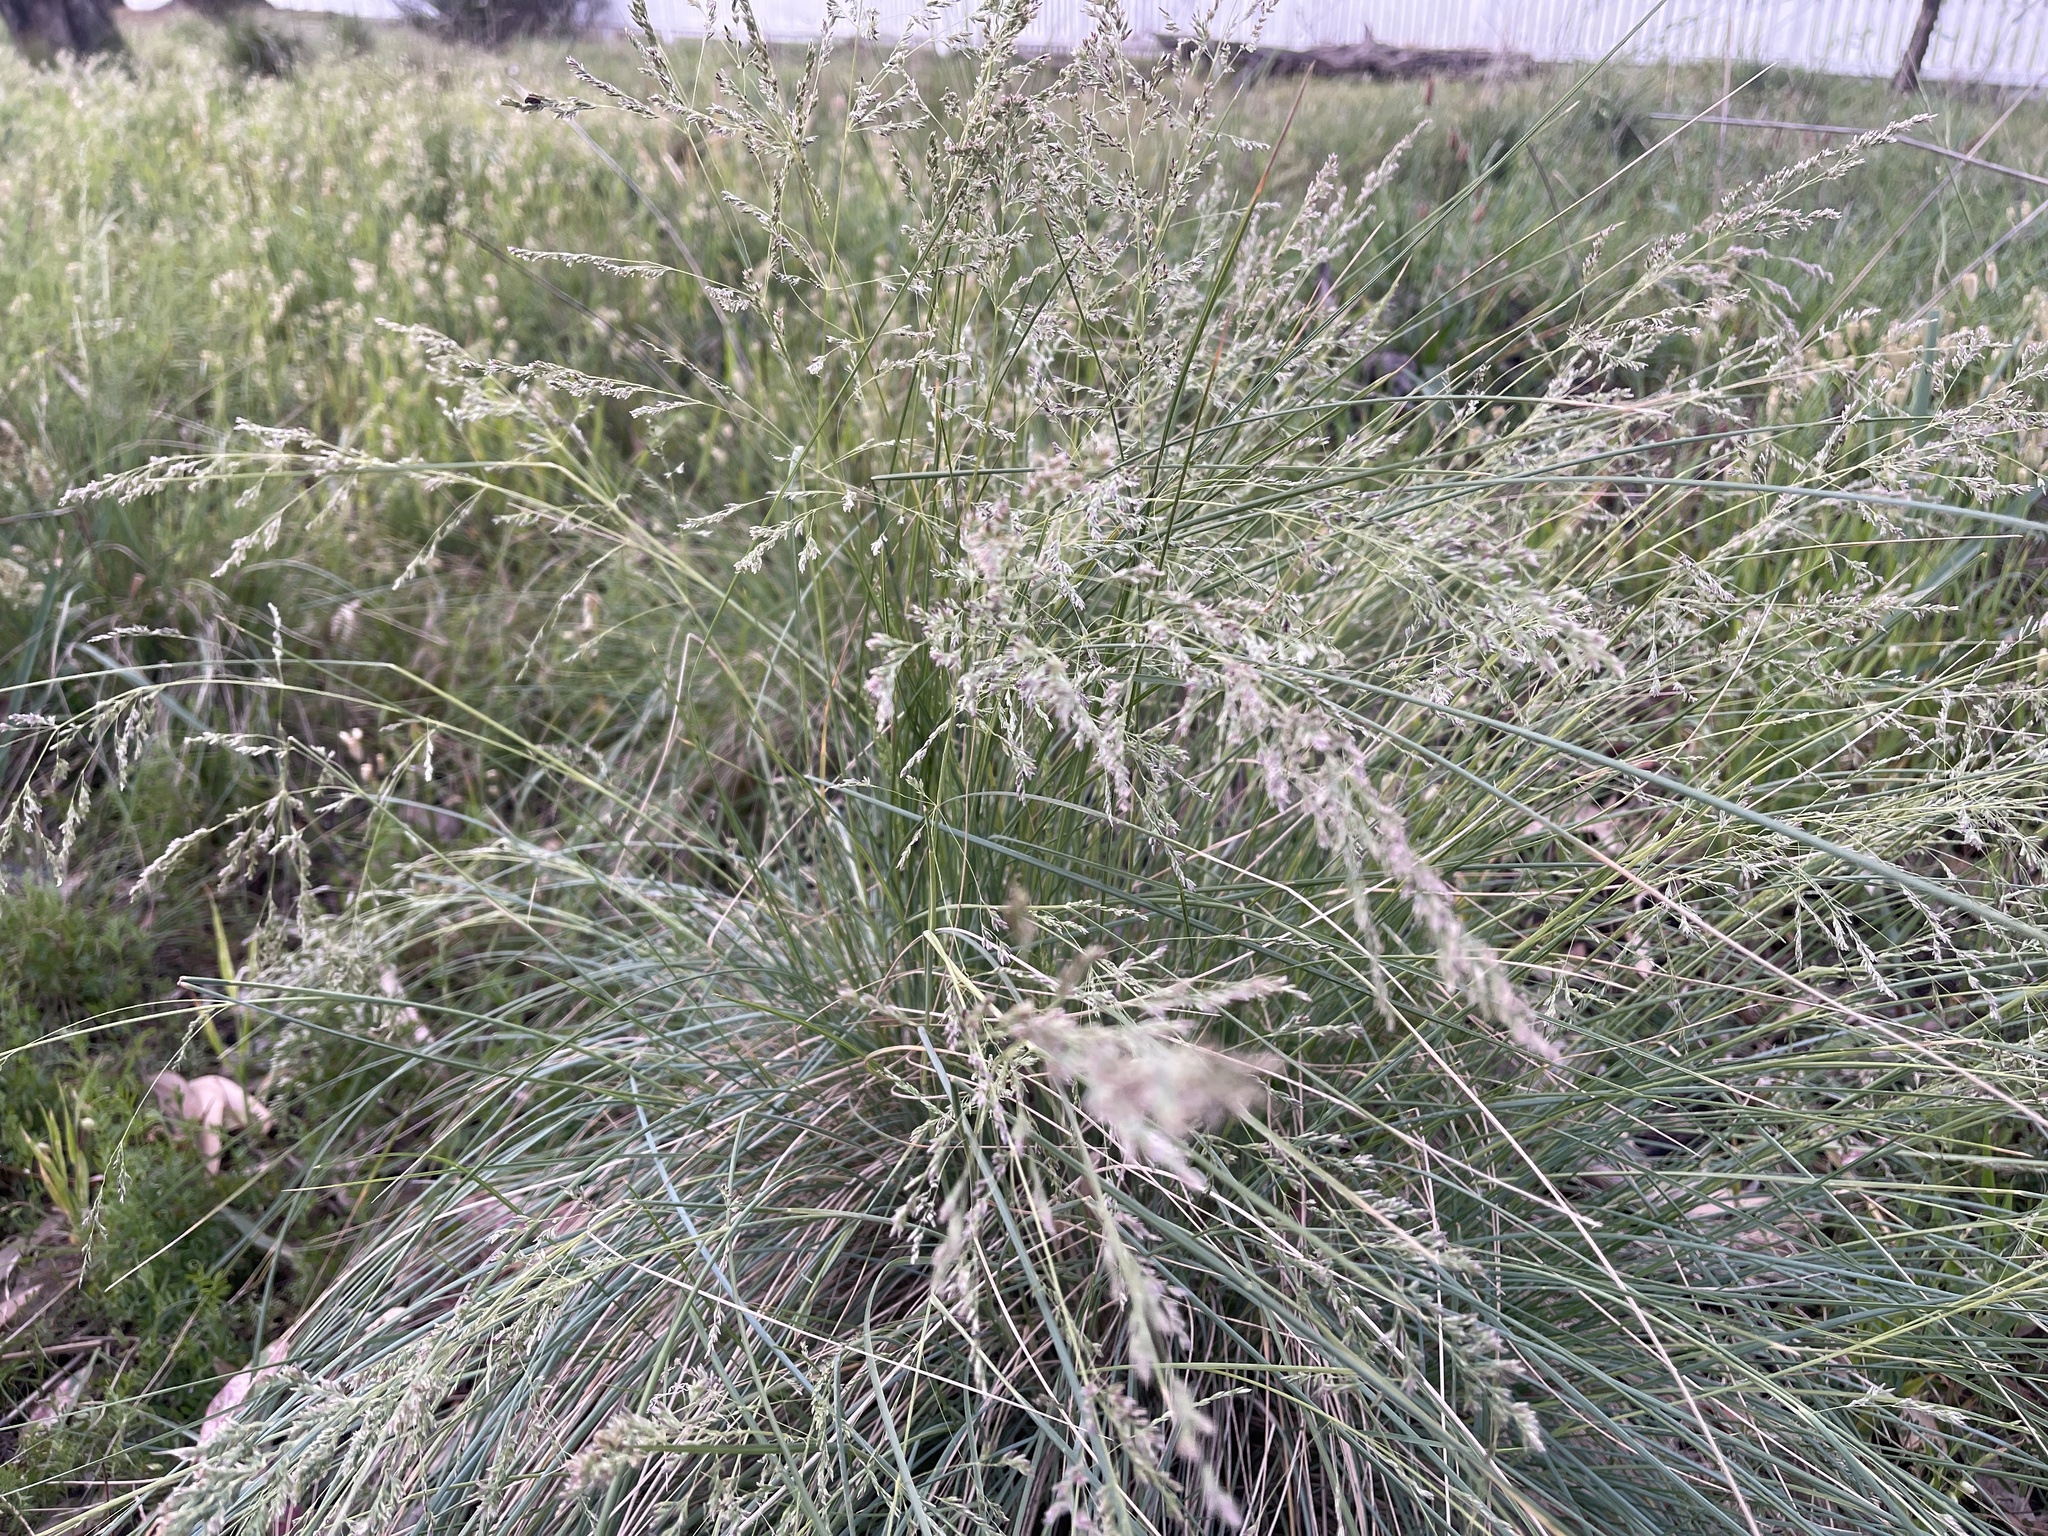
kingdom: Plantae
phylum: Tracheophyta
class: Liliopsida
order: Poales
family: Poaceae
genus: Poa
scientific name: Poa labillardierei
